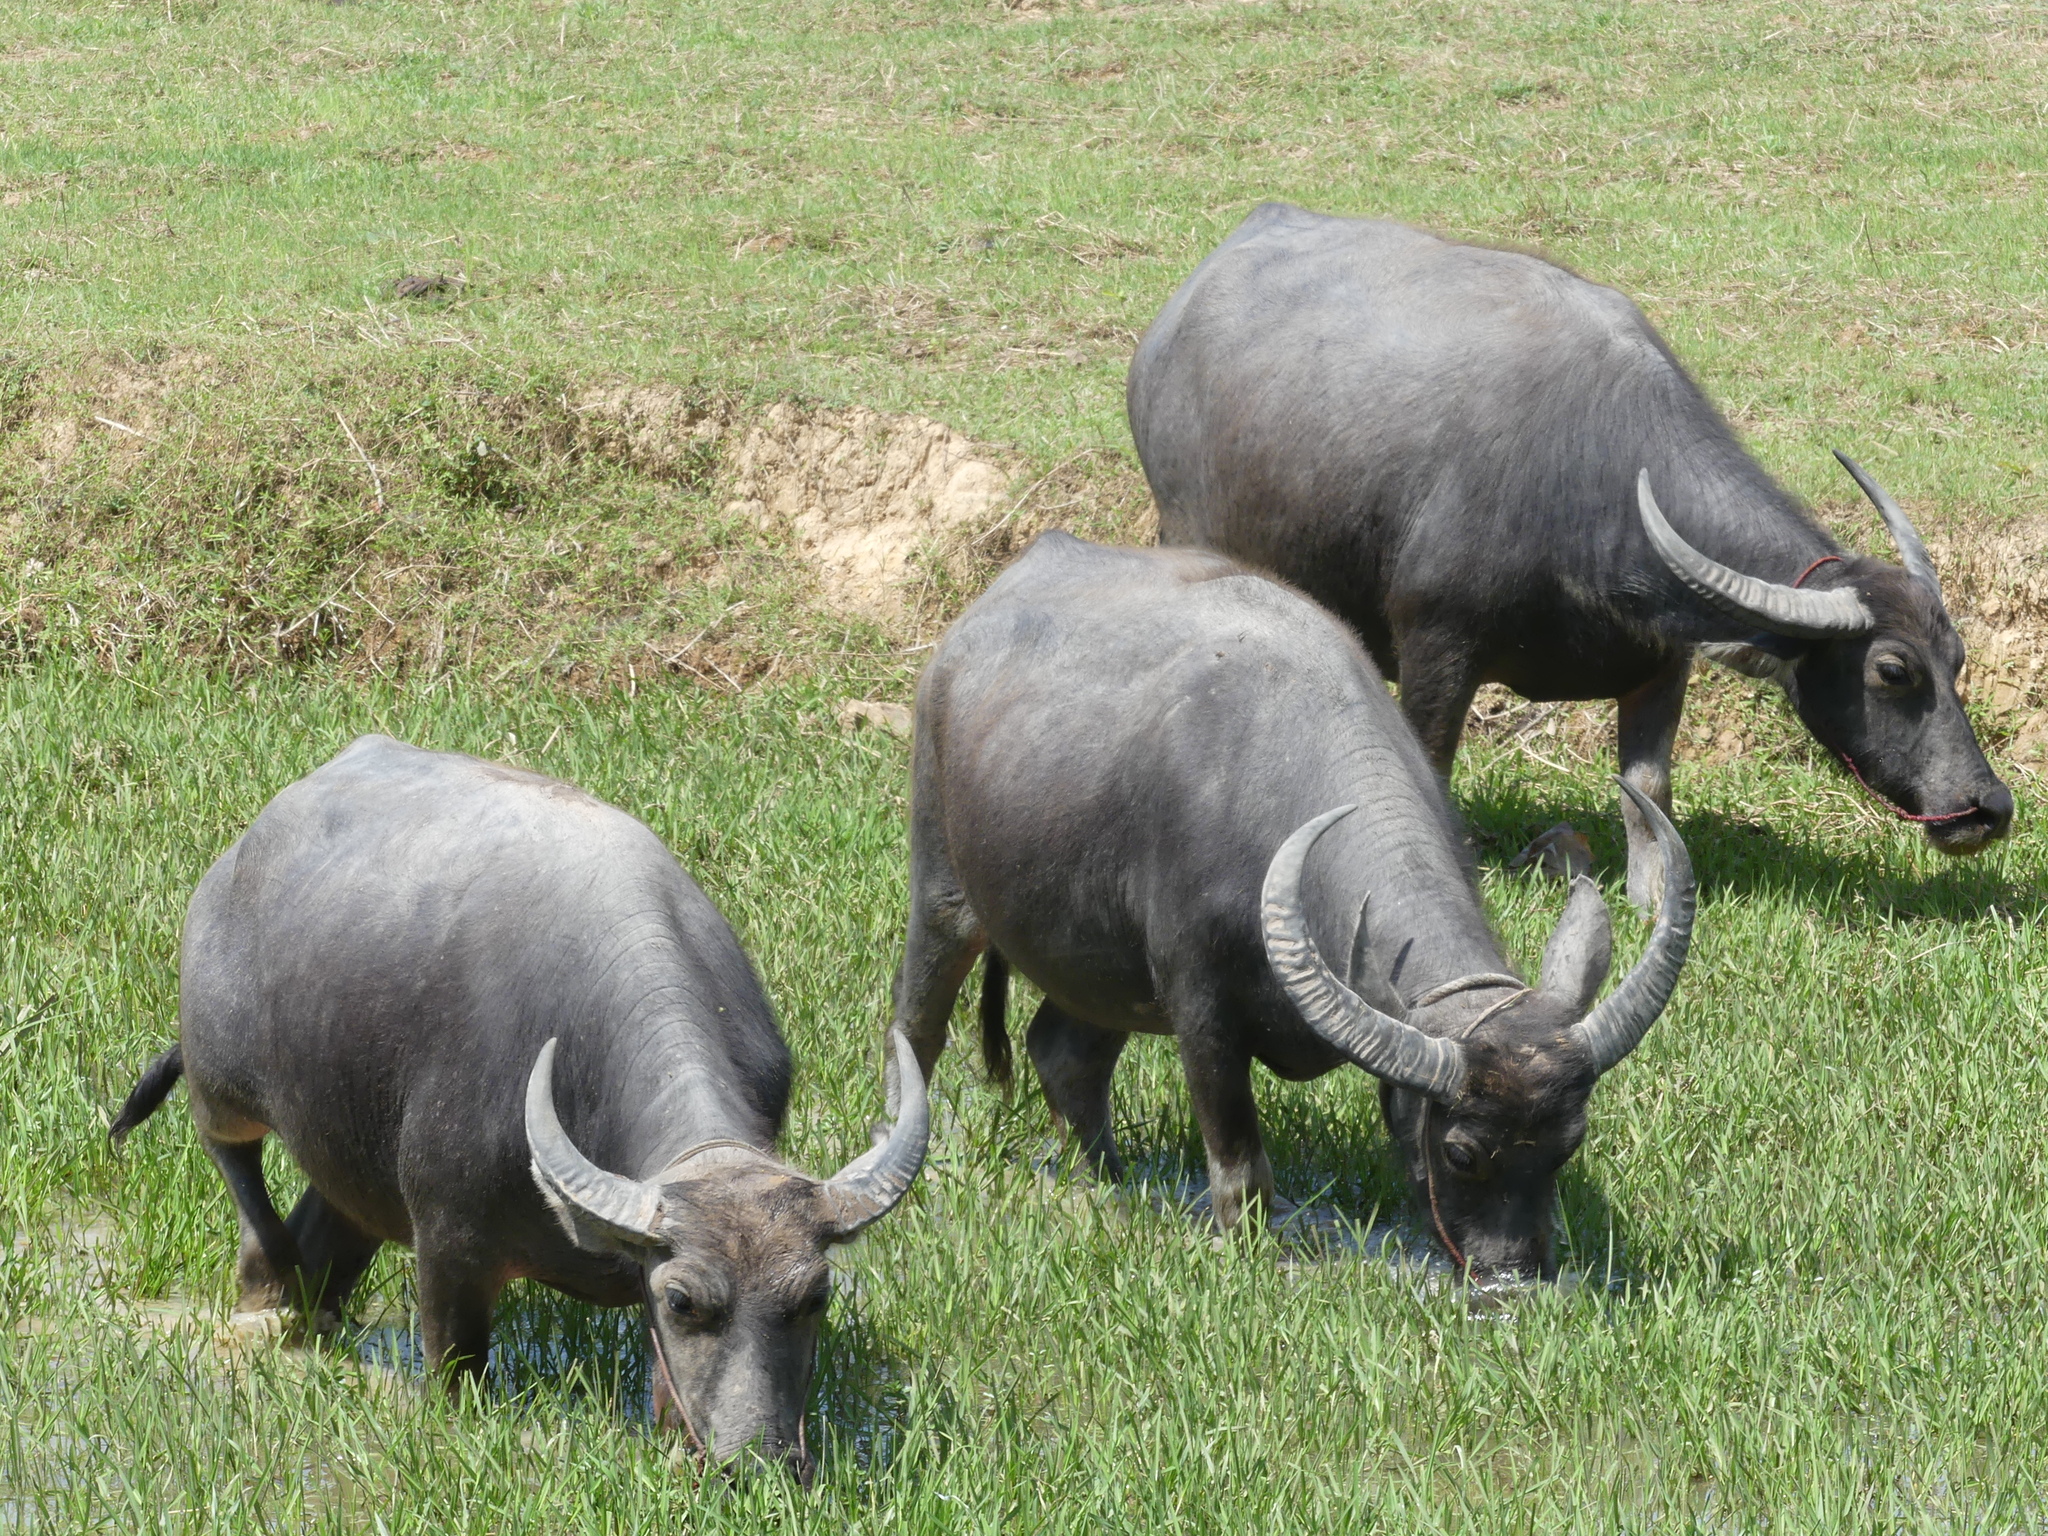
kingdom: Animalia
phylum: Chordata
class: Mammalia
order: Artiodactyla
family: Bovidae
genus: Bubalus
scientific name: Bubalus bubalis
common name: Water buffalo
